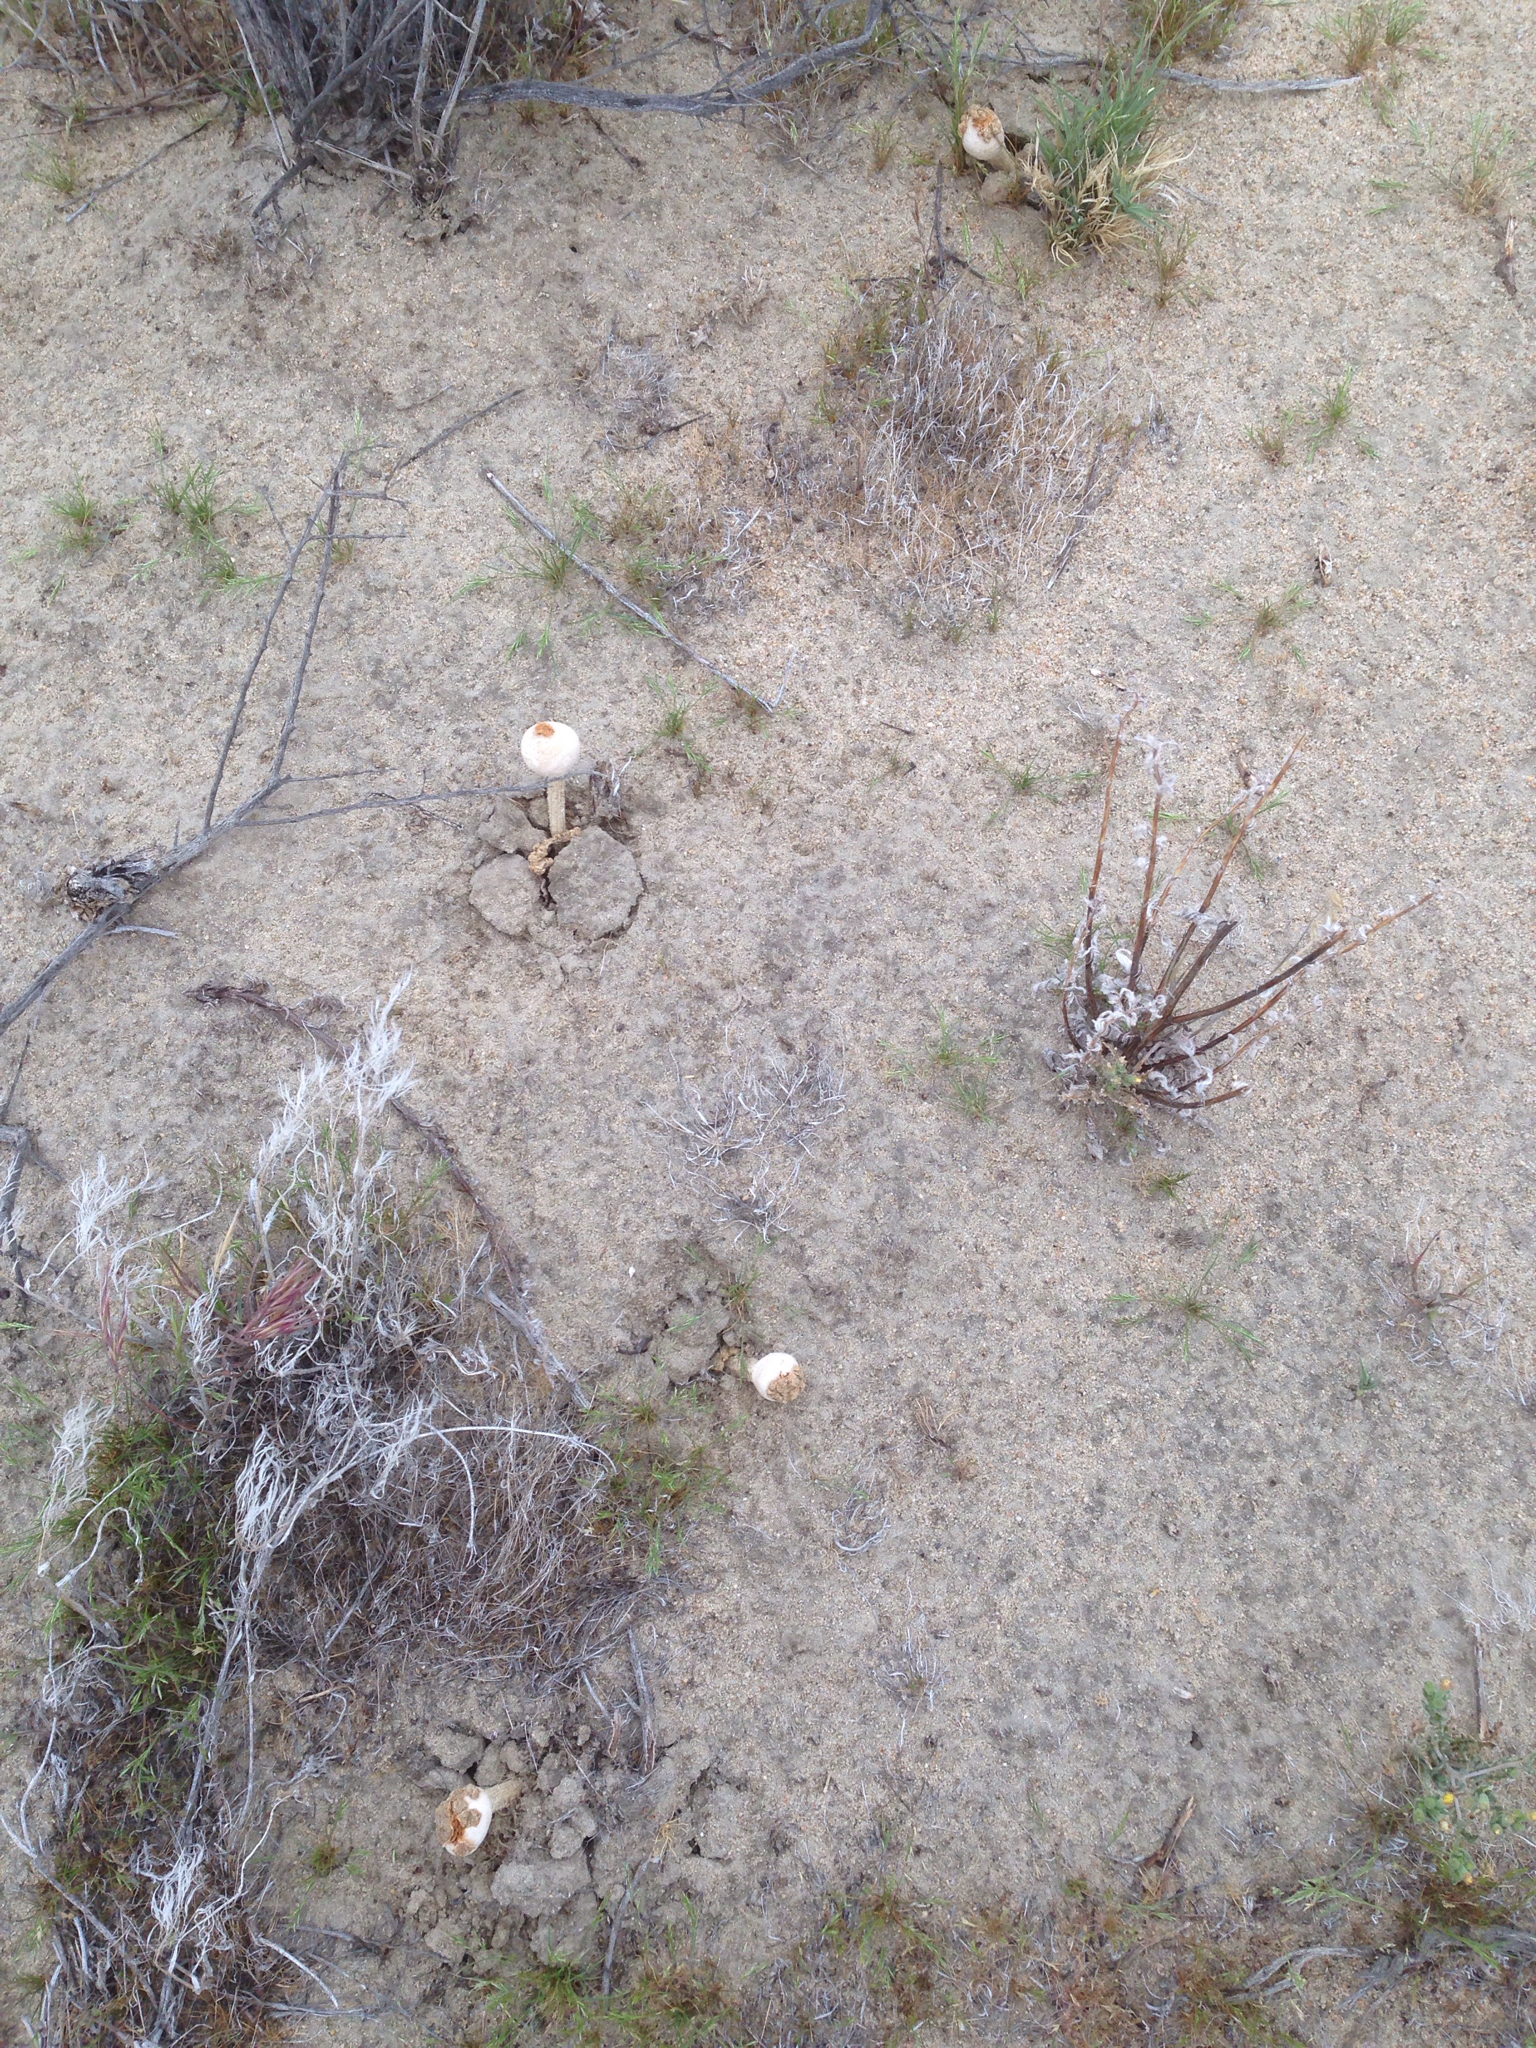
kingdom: Fungi
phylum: Basidiomycota
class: Agaricomycetes
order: Agaricales
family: Agaricaceae
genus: Chlamydopus
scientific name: Chlamydopus meyenianus
